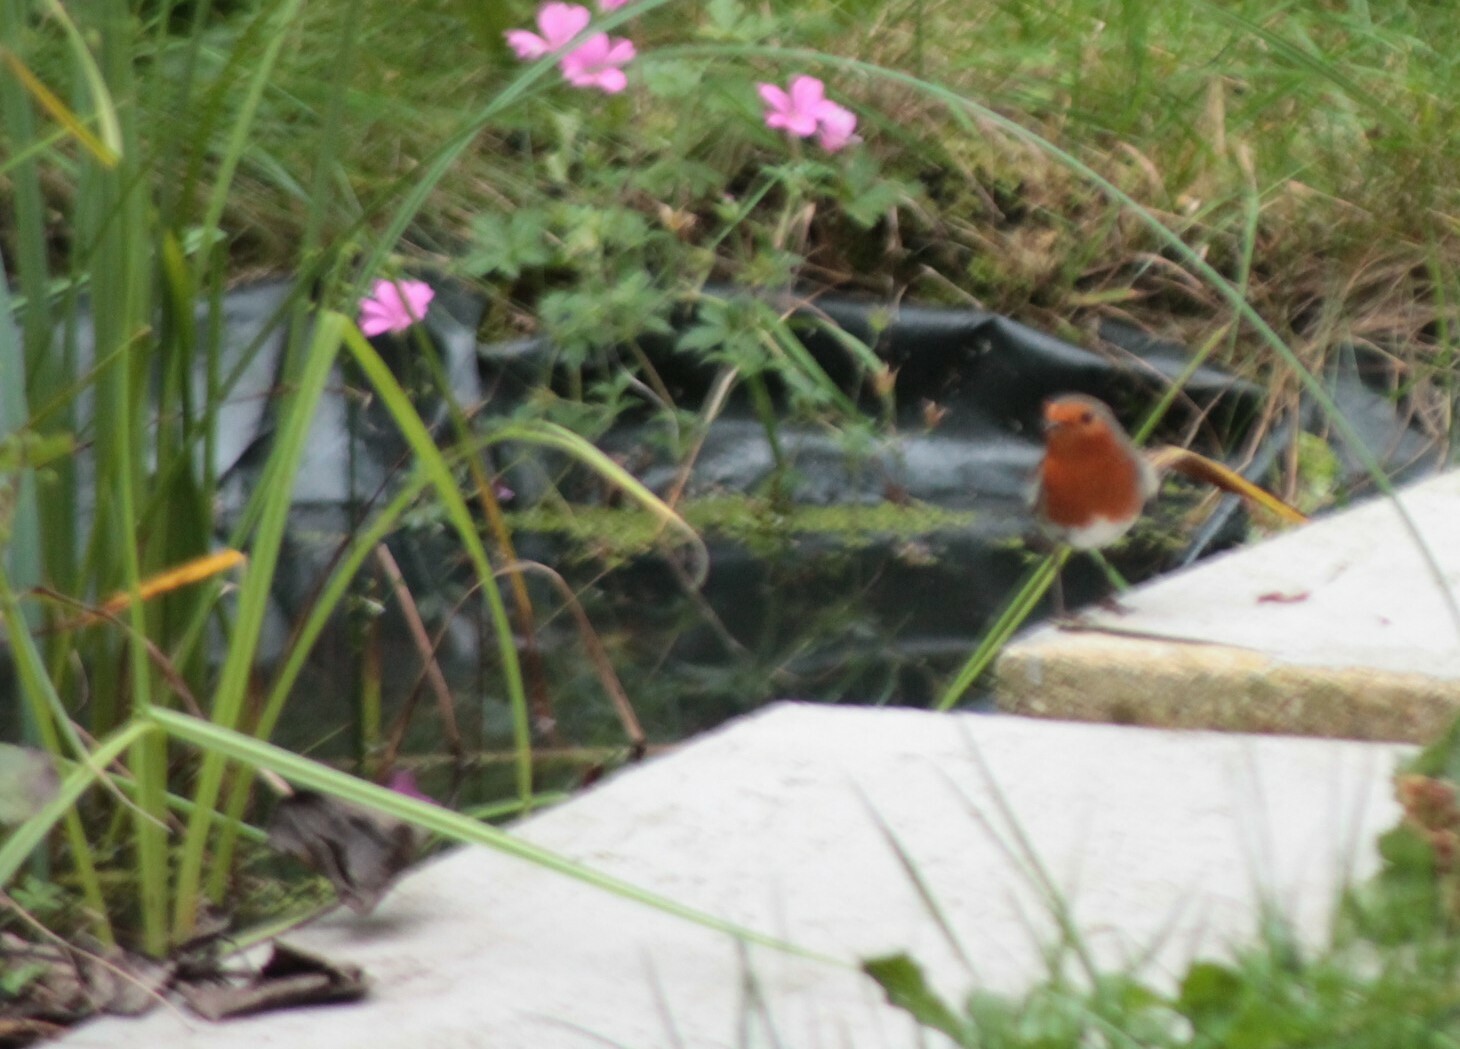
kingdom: Animalia
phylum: Chordata
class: Aves
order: Passeriformes
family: Muscicapidae
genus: Erithacus
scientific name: Erithacus rubecula
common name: European robin
